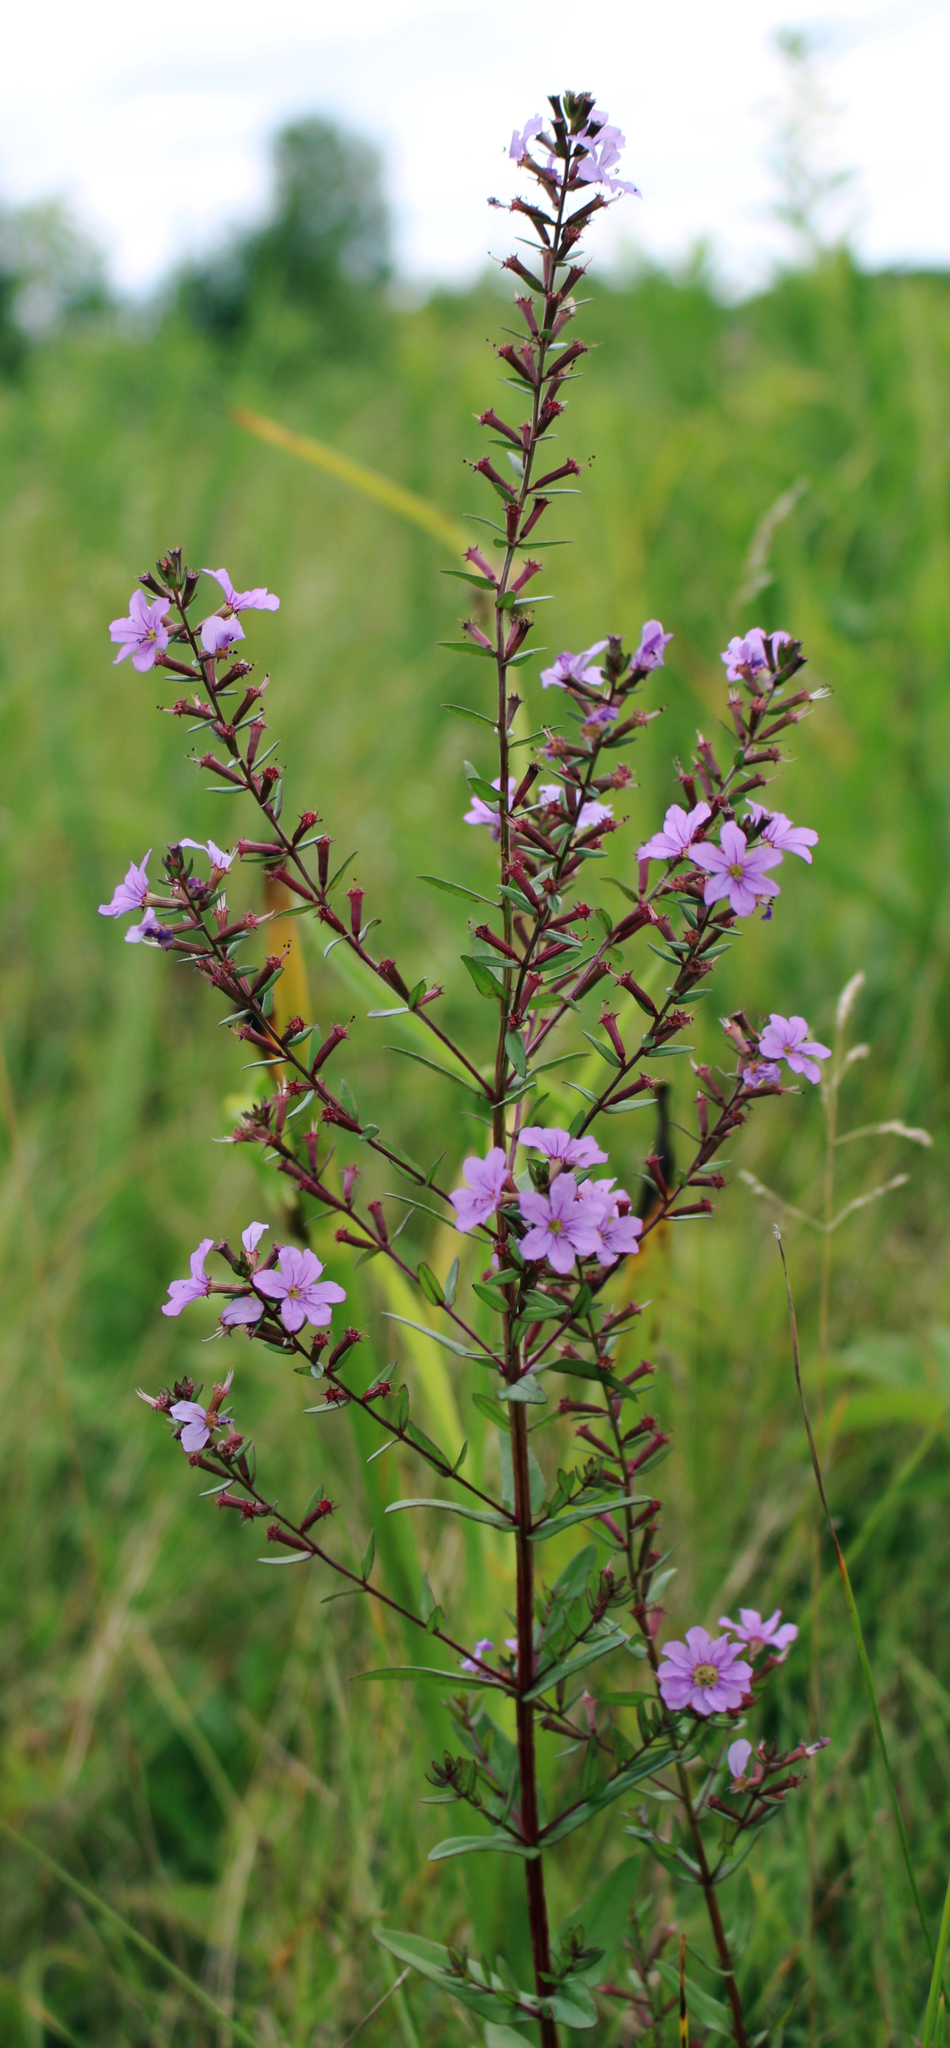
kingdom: Plantae
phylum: Tracheophyta
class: Magnoliopsida
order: Myrtales
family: Lythraceae
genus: Lythrum
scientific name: Lythrum alatum
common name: Winged loosestrife
